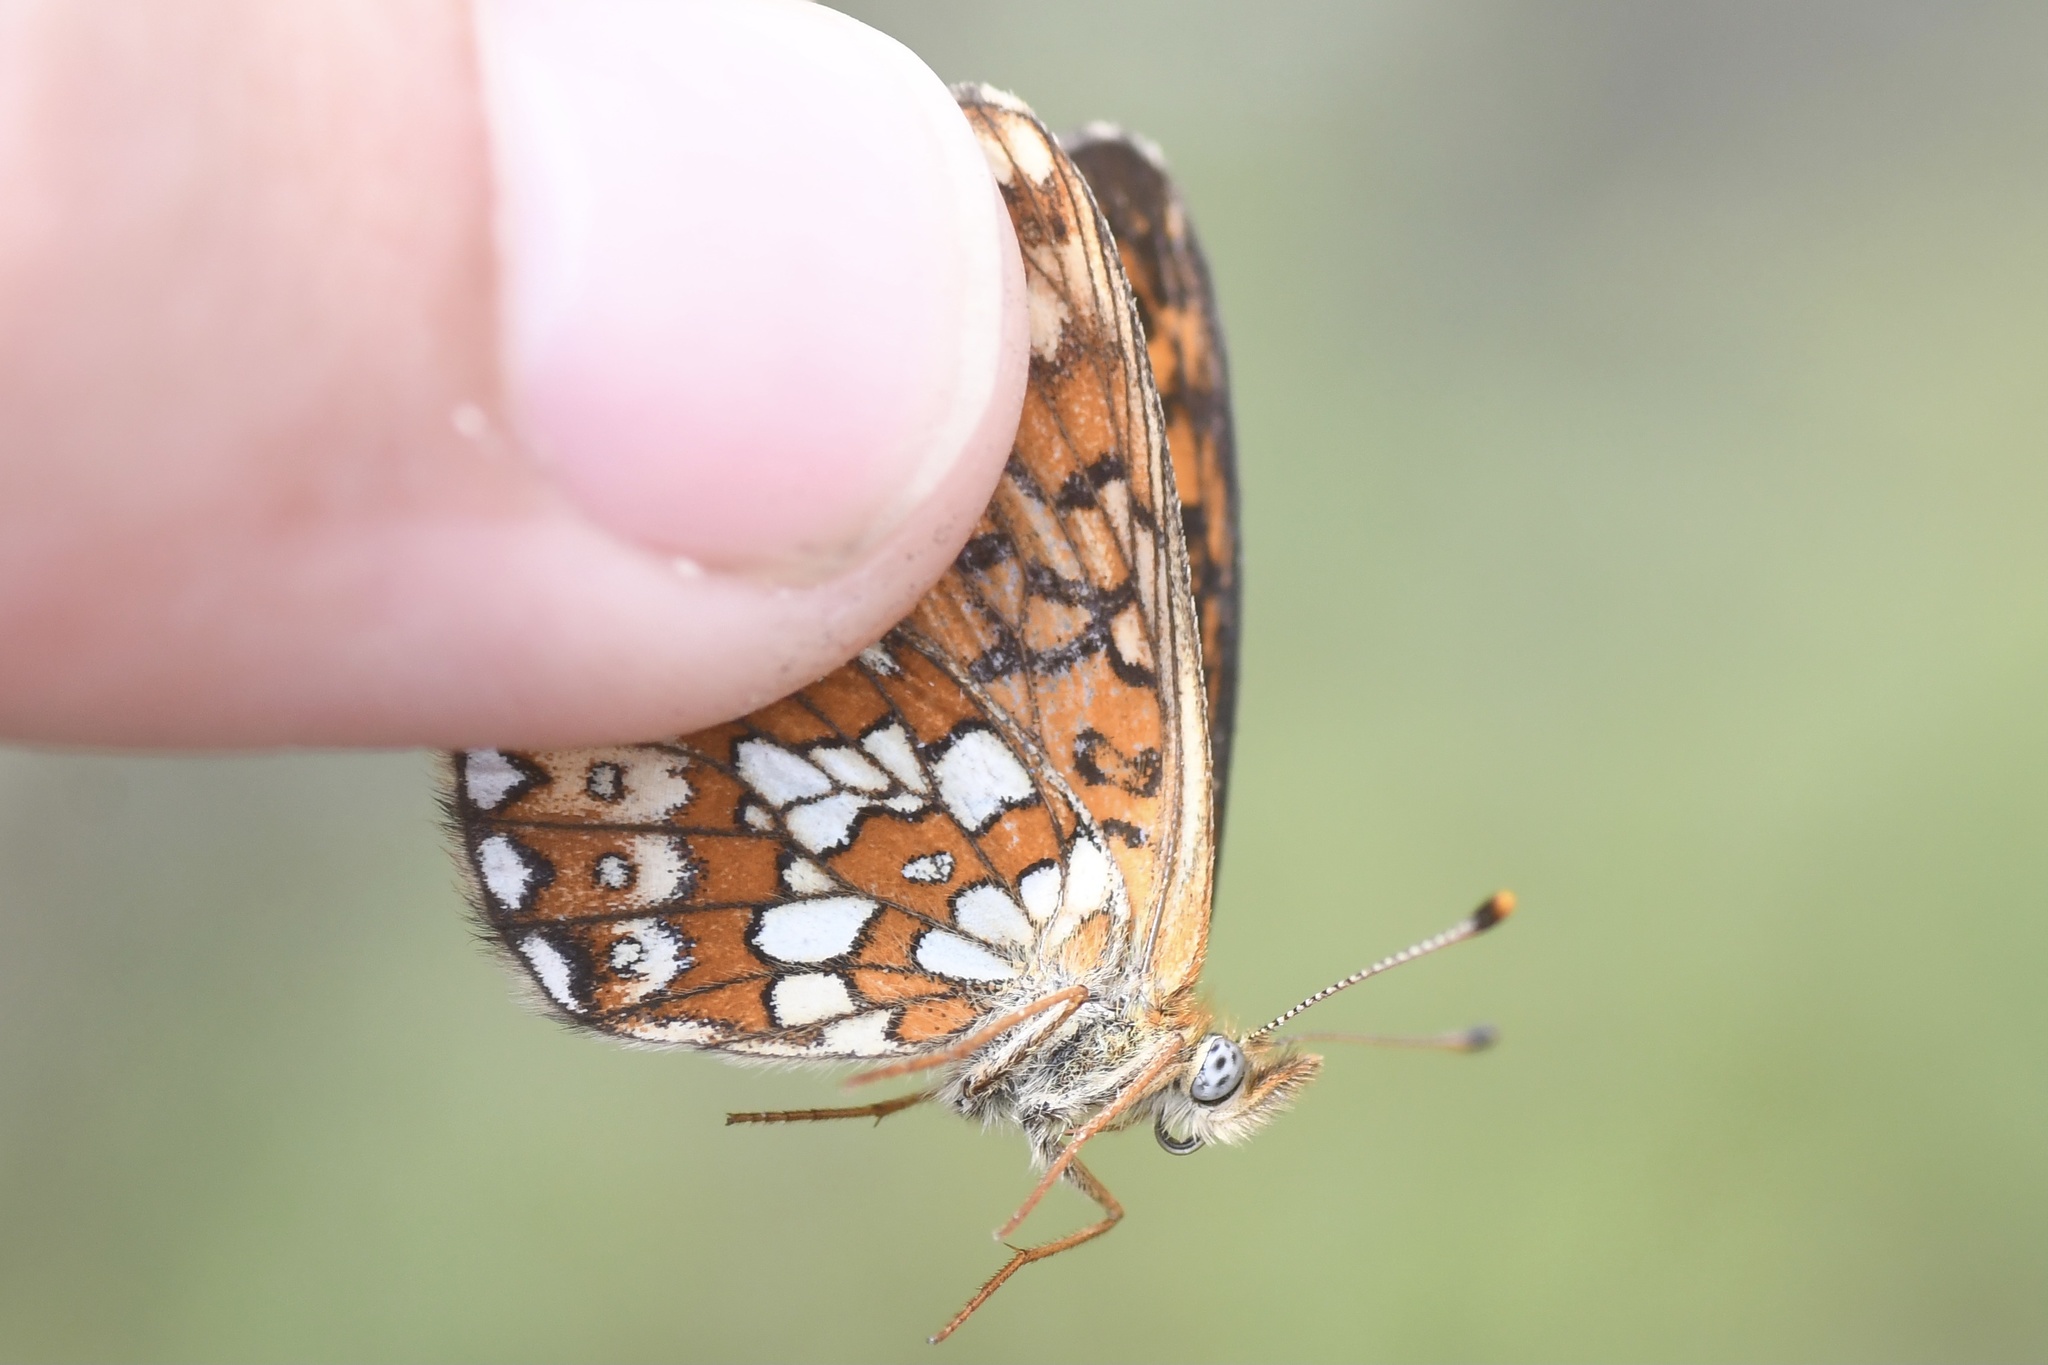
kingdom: Animalia
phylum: Arthropoda
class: Insecta
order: Lepidoptera
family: Nymphalidae
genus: Boloria
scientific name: Boloria eunomia
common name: Bog fritillary
